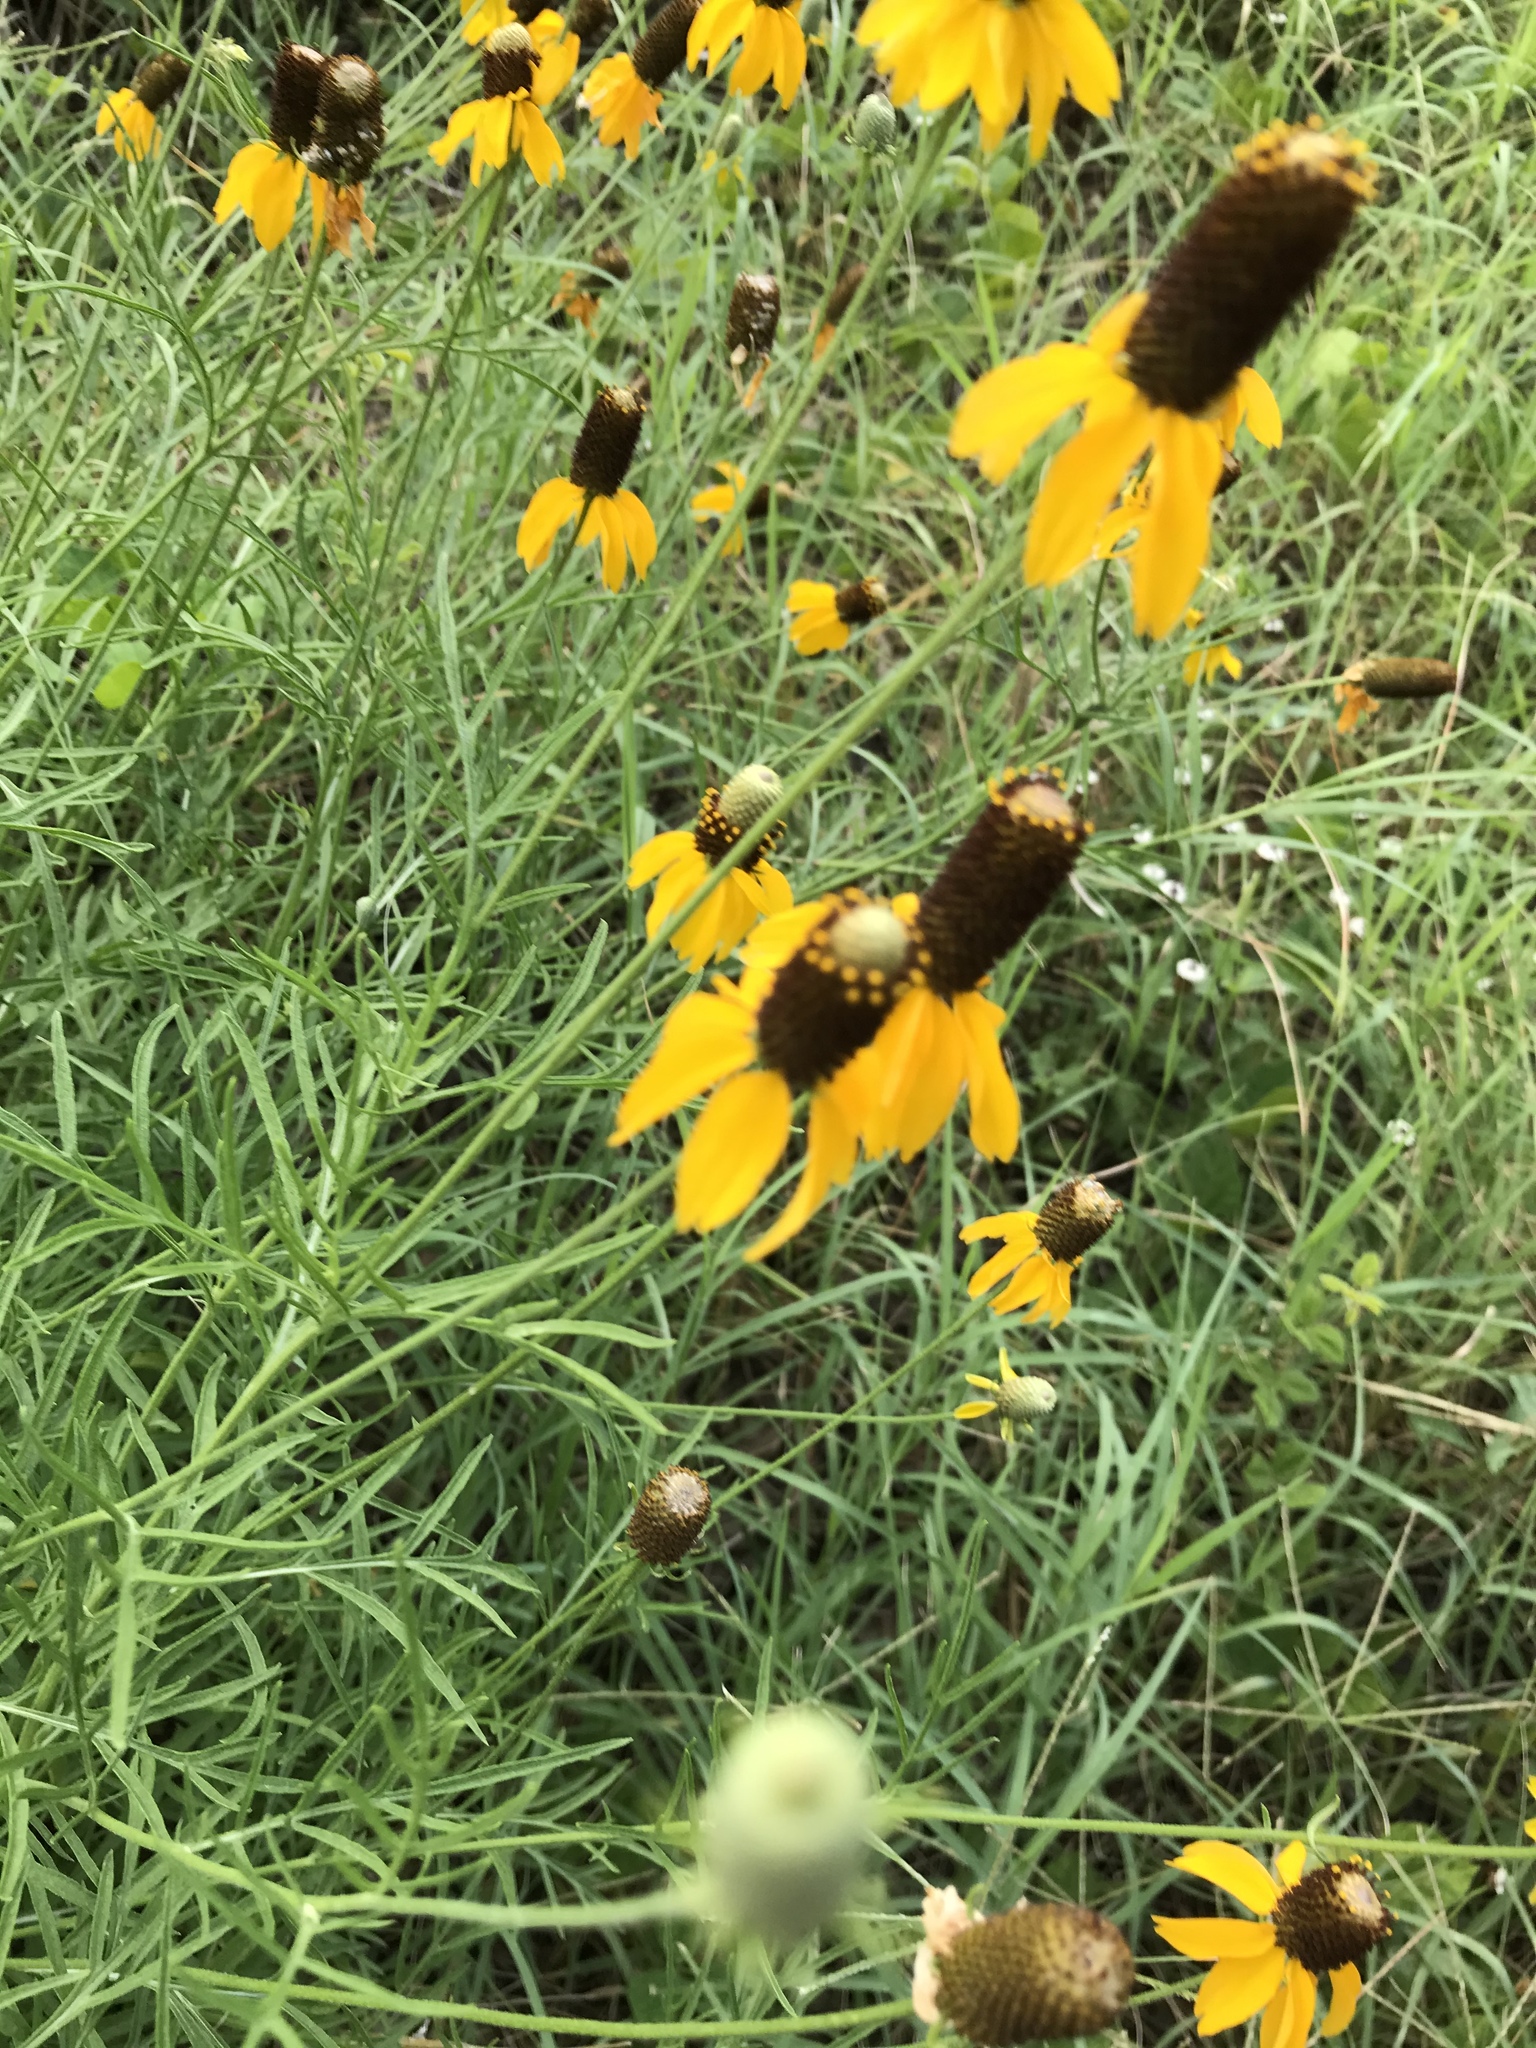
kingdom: Plantae
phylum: Tracheophyta
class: Magnoliopsida
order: Asterales
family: Asteraceae
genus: Ratibida
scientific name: Ratibida columnifera
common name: Prairie coneflower
